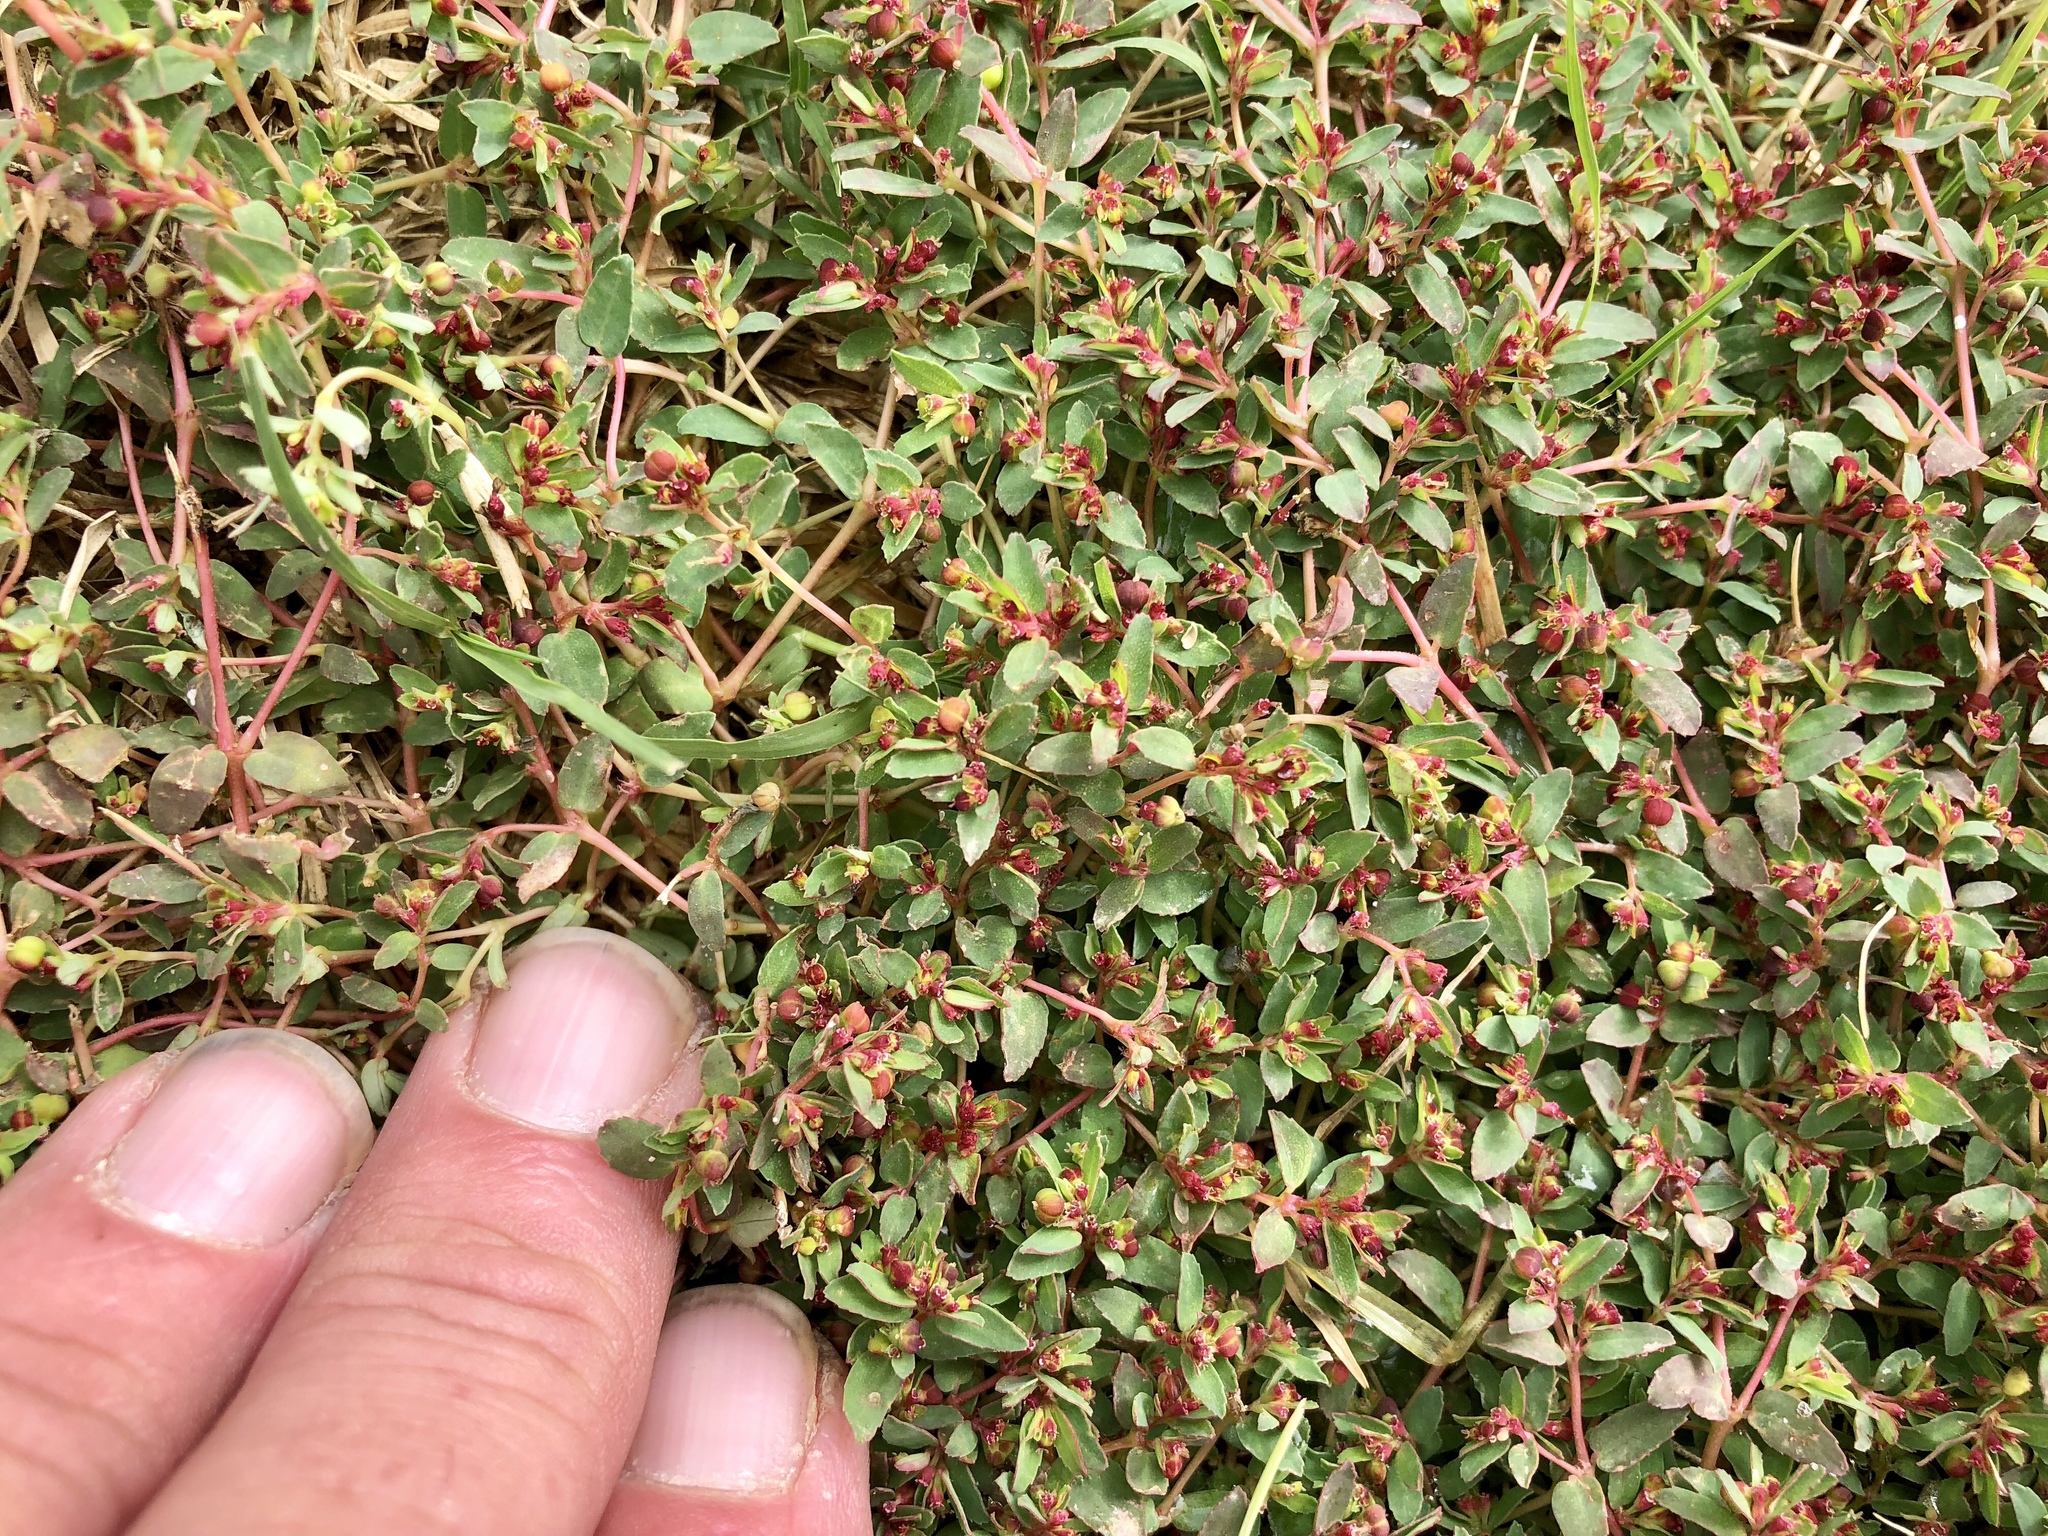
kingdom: Plantae
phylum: Tracheophyta
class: Magnoliopsida
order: Malpighiales
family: Euphorbiaceae
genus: Euphorbia
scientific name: Euphorbia vermiculata
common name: Hairy spurge
